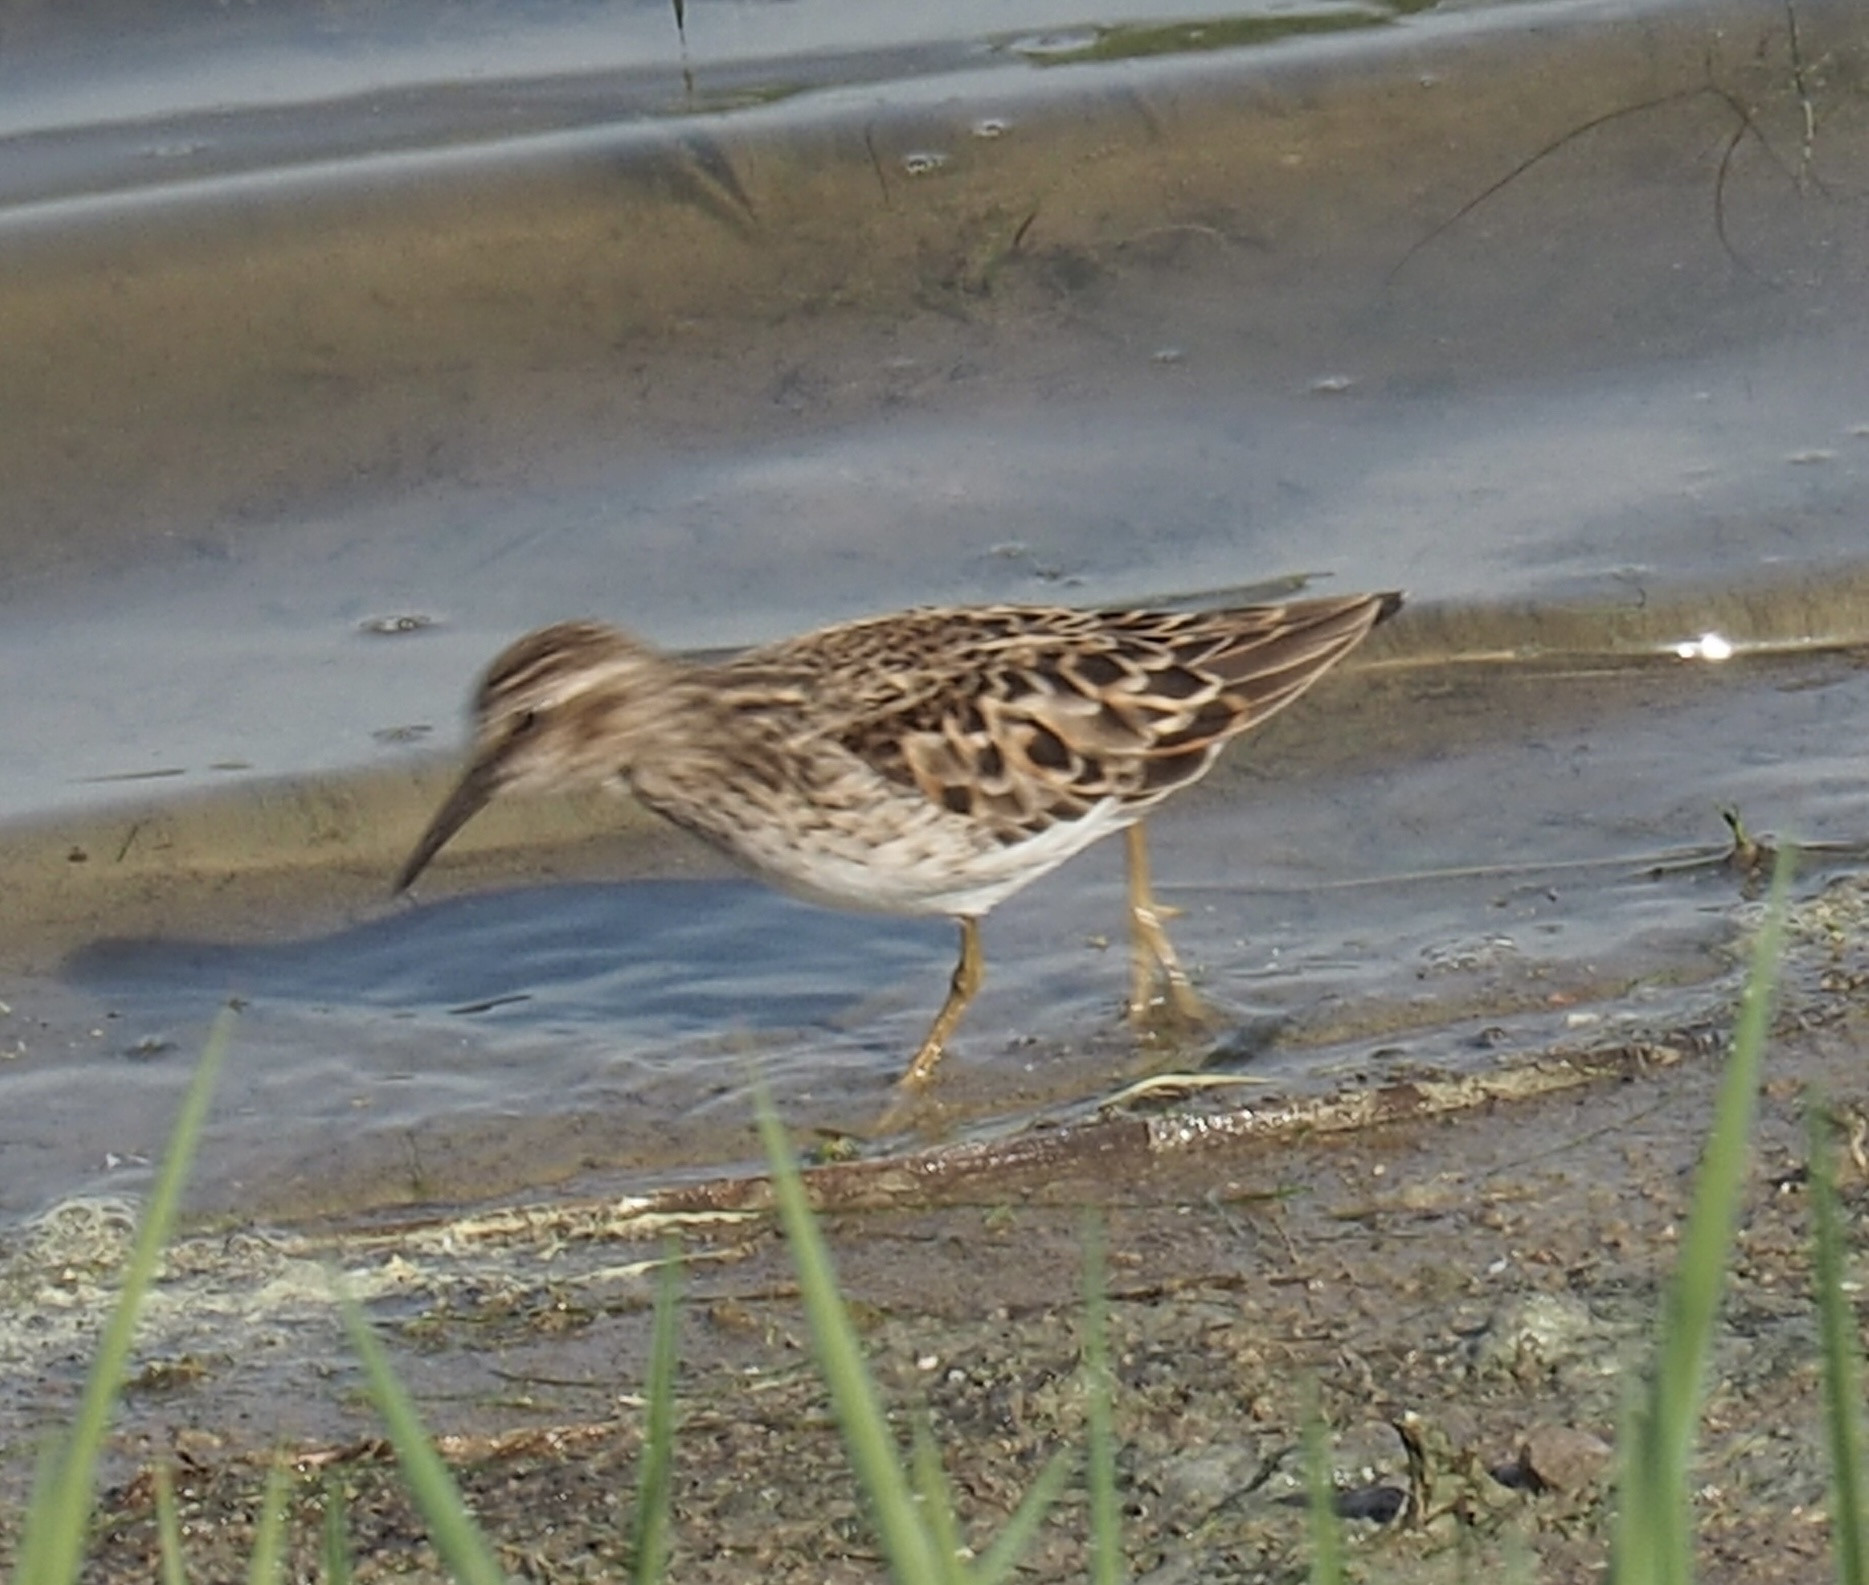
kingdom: Animalia
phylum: Chordata
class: Aves
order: Charadriiformes
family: Scolopacidae
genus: Calidris
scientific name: Calidris minutilla
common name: Least sandpiper
